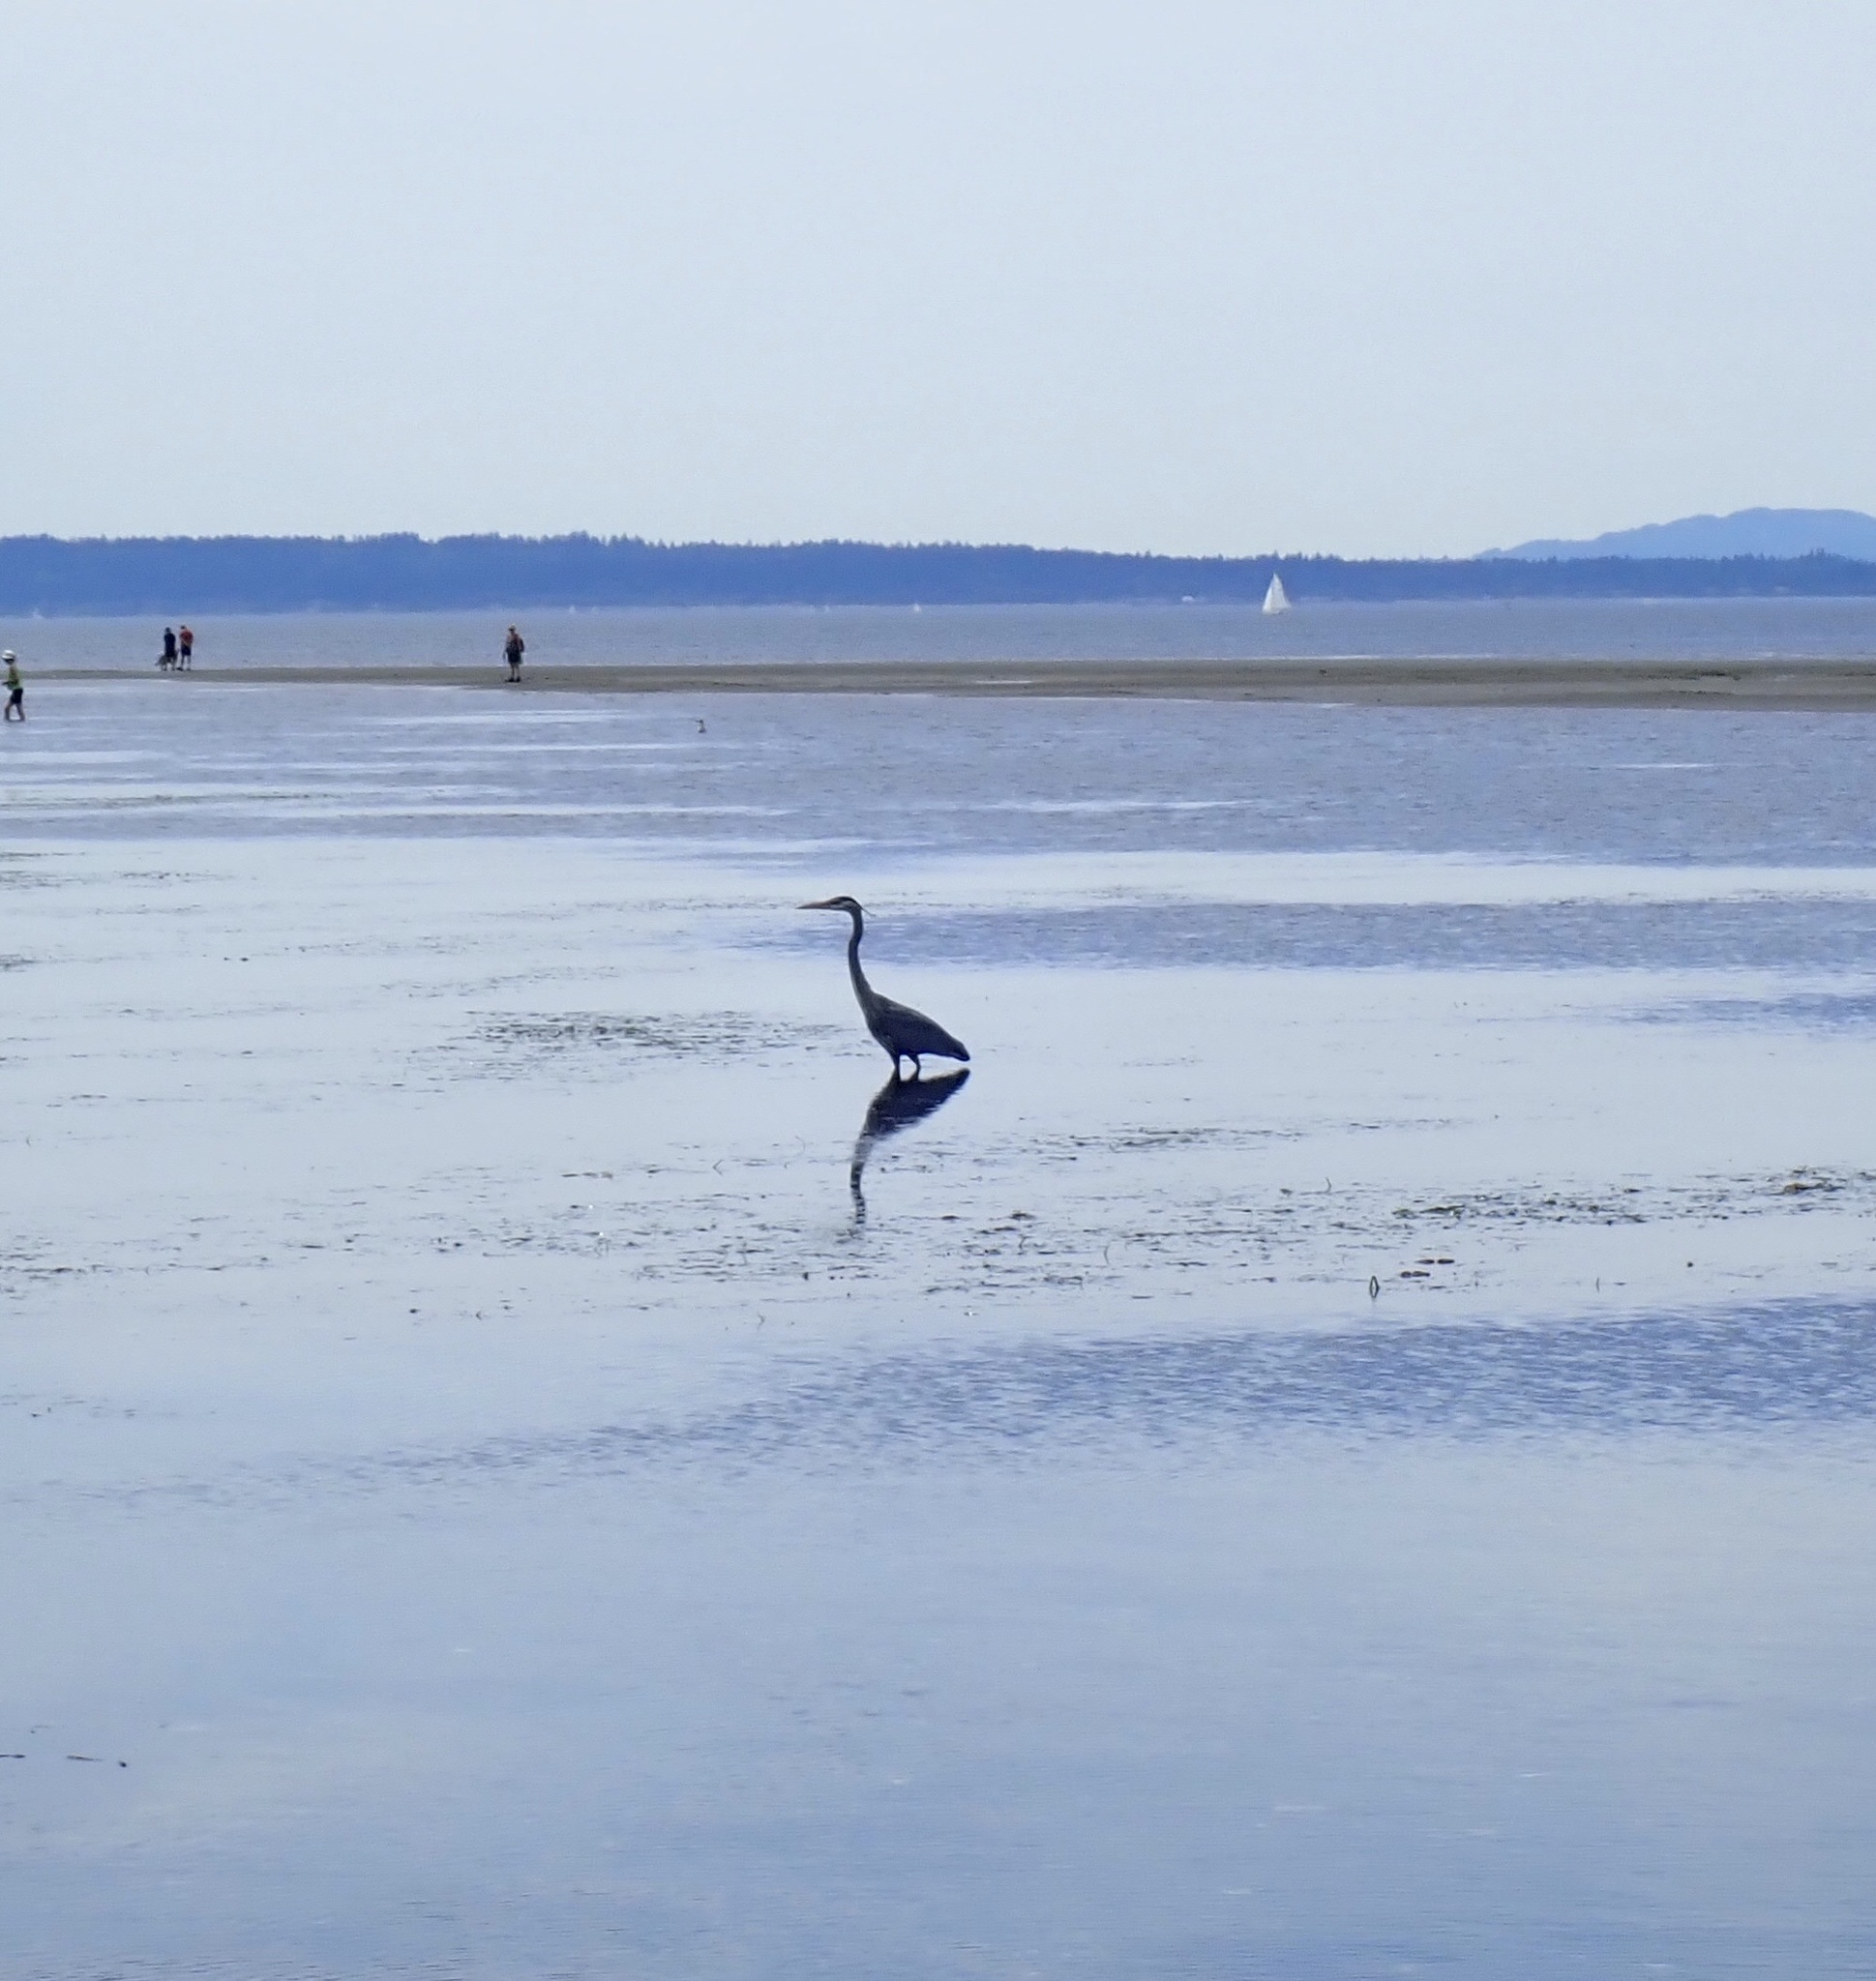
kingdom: Animalia
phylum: Chordata
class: Aves
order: Pelecaniformes
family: Ardeidae
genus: Ardea
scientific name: Ardea herodias
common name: Great blue heron
